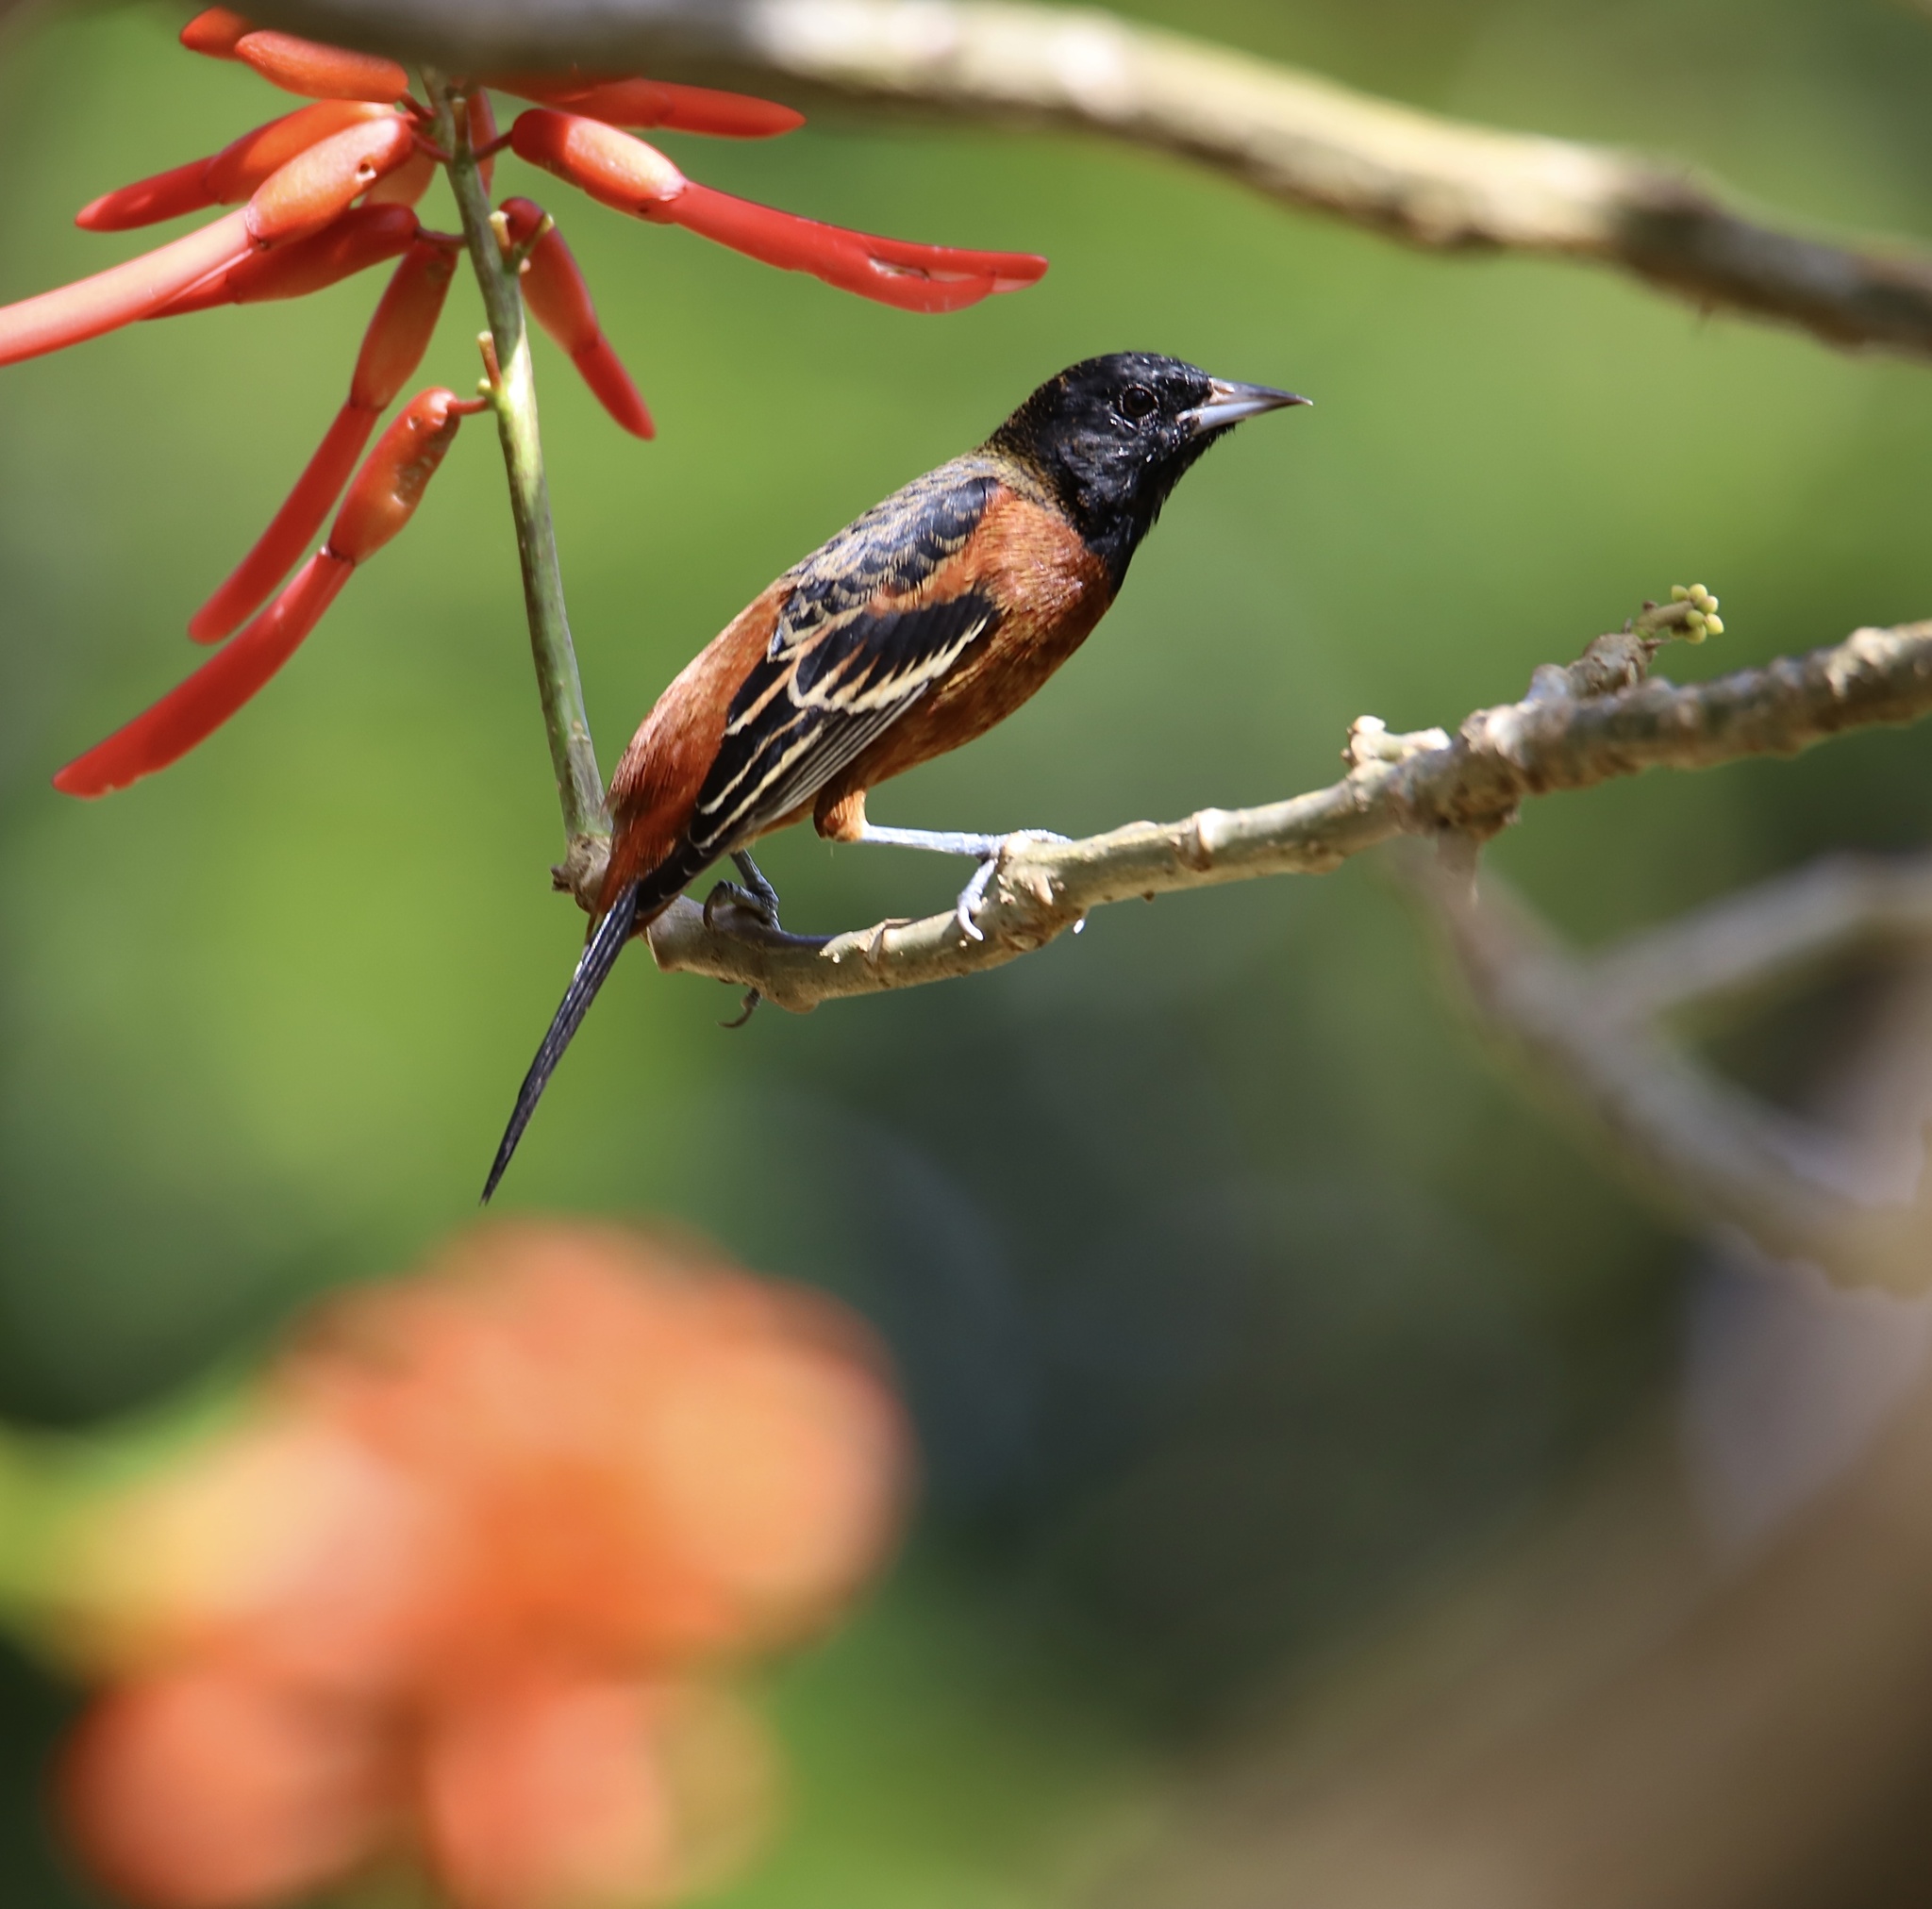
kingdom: Animalia
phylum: Chordata
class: Aves
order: Passeriformes
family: Icteridae
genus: Icterus
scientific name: Icterus spurius
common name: Orchard oriole
